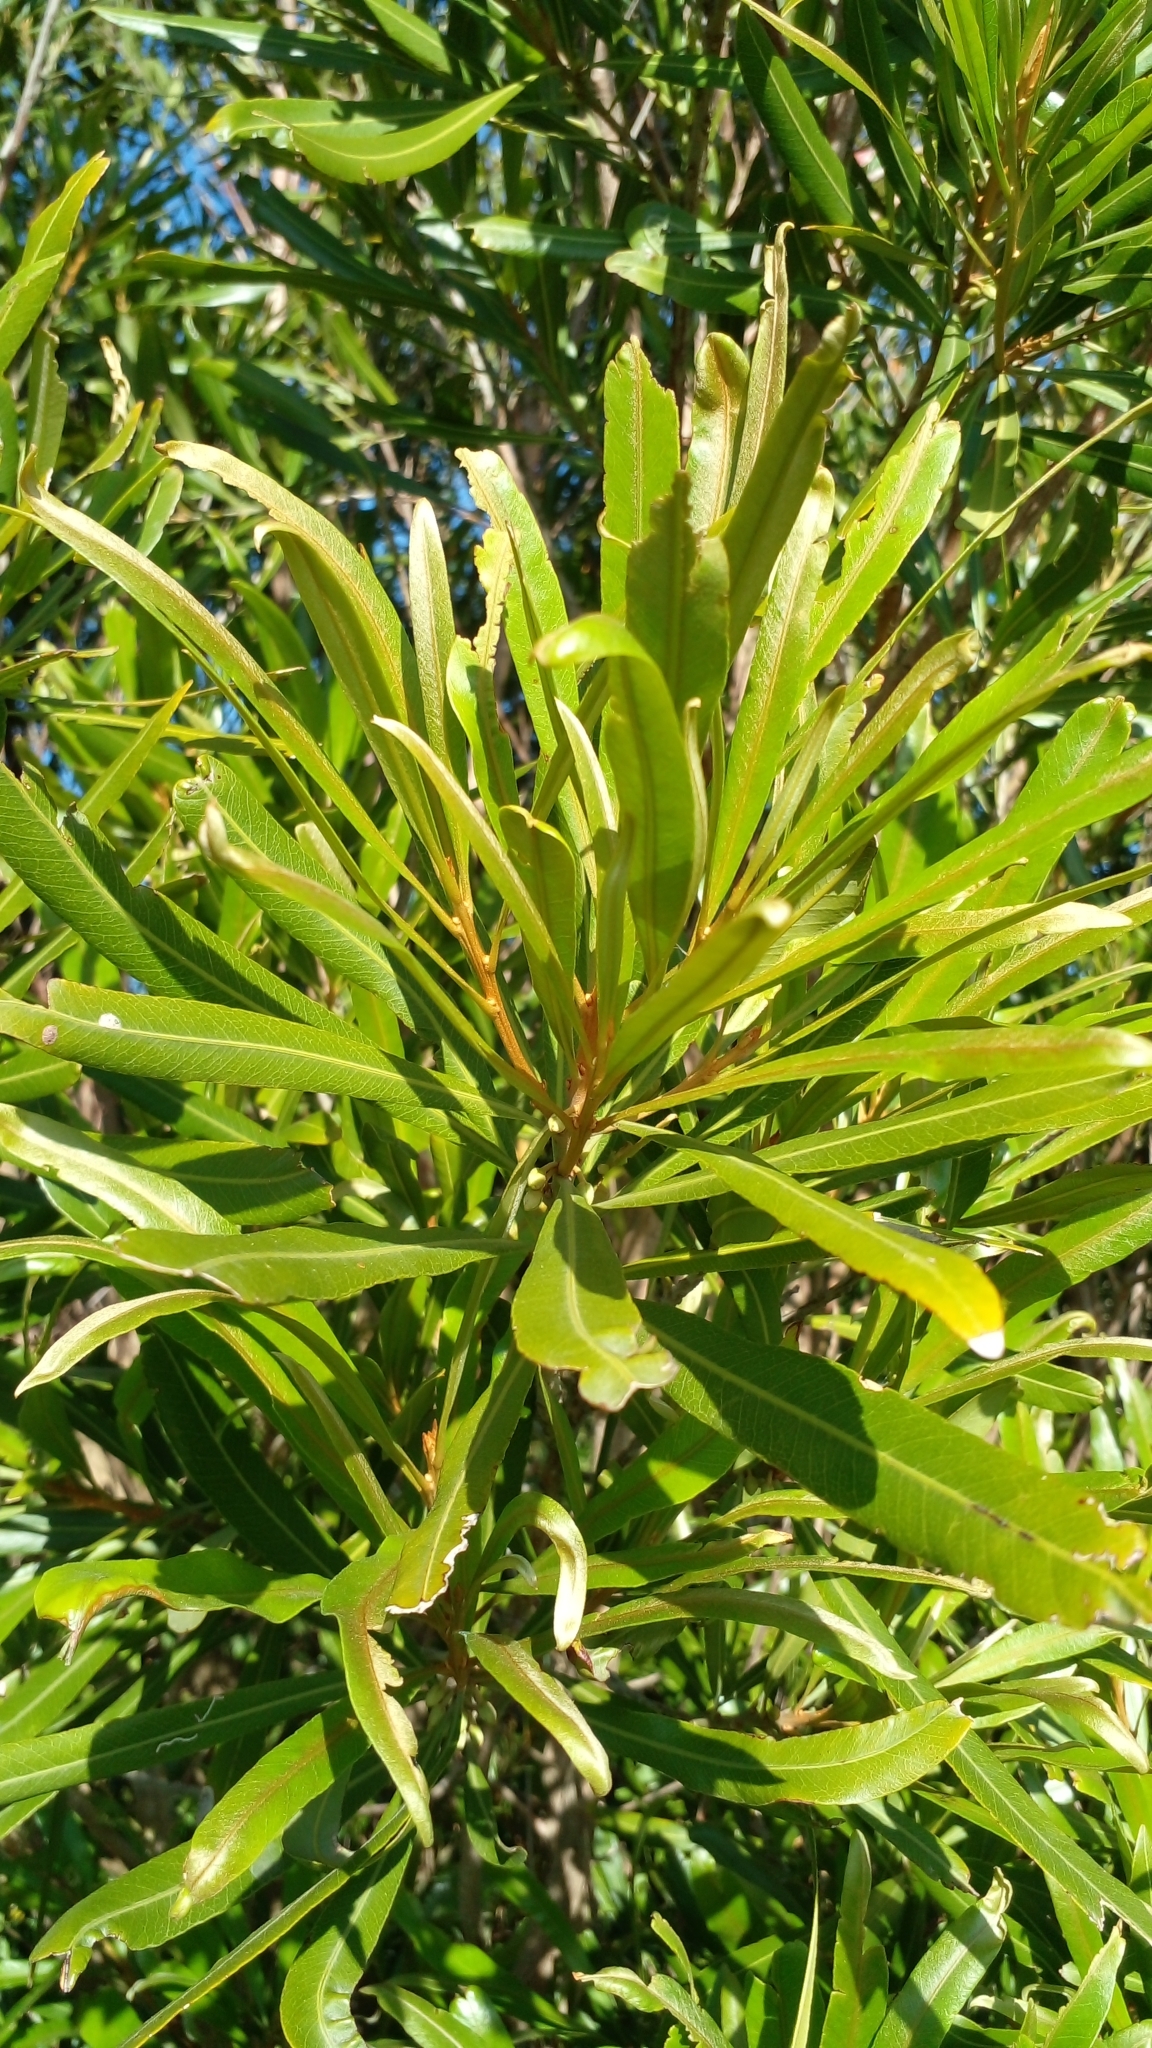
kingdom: Plantae
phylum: Tracheophyta
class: Magnoliopsida
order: Ericales
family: Sapotaceae
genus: Labatia
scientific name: Labatia salicifolia
